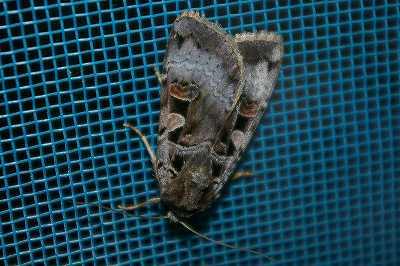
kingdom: Animalia
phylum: Arthropoda
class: Insecta
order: Lepidoptera
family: Noctuidae
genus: Xestia
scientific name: Xestia kollari
